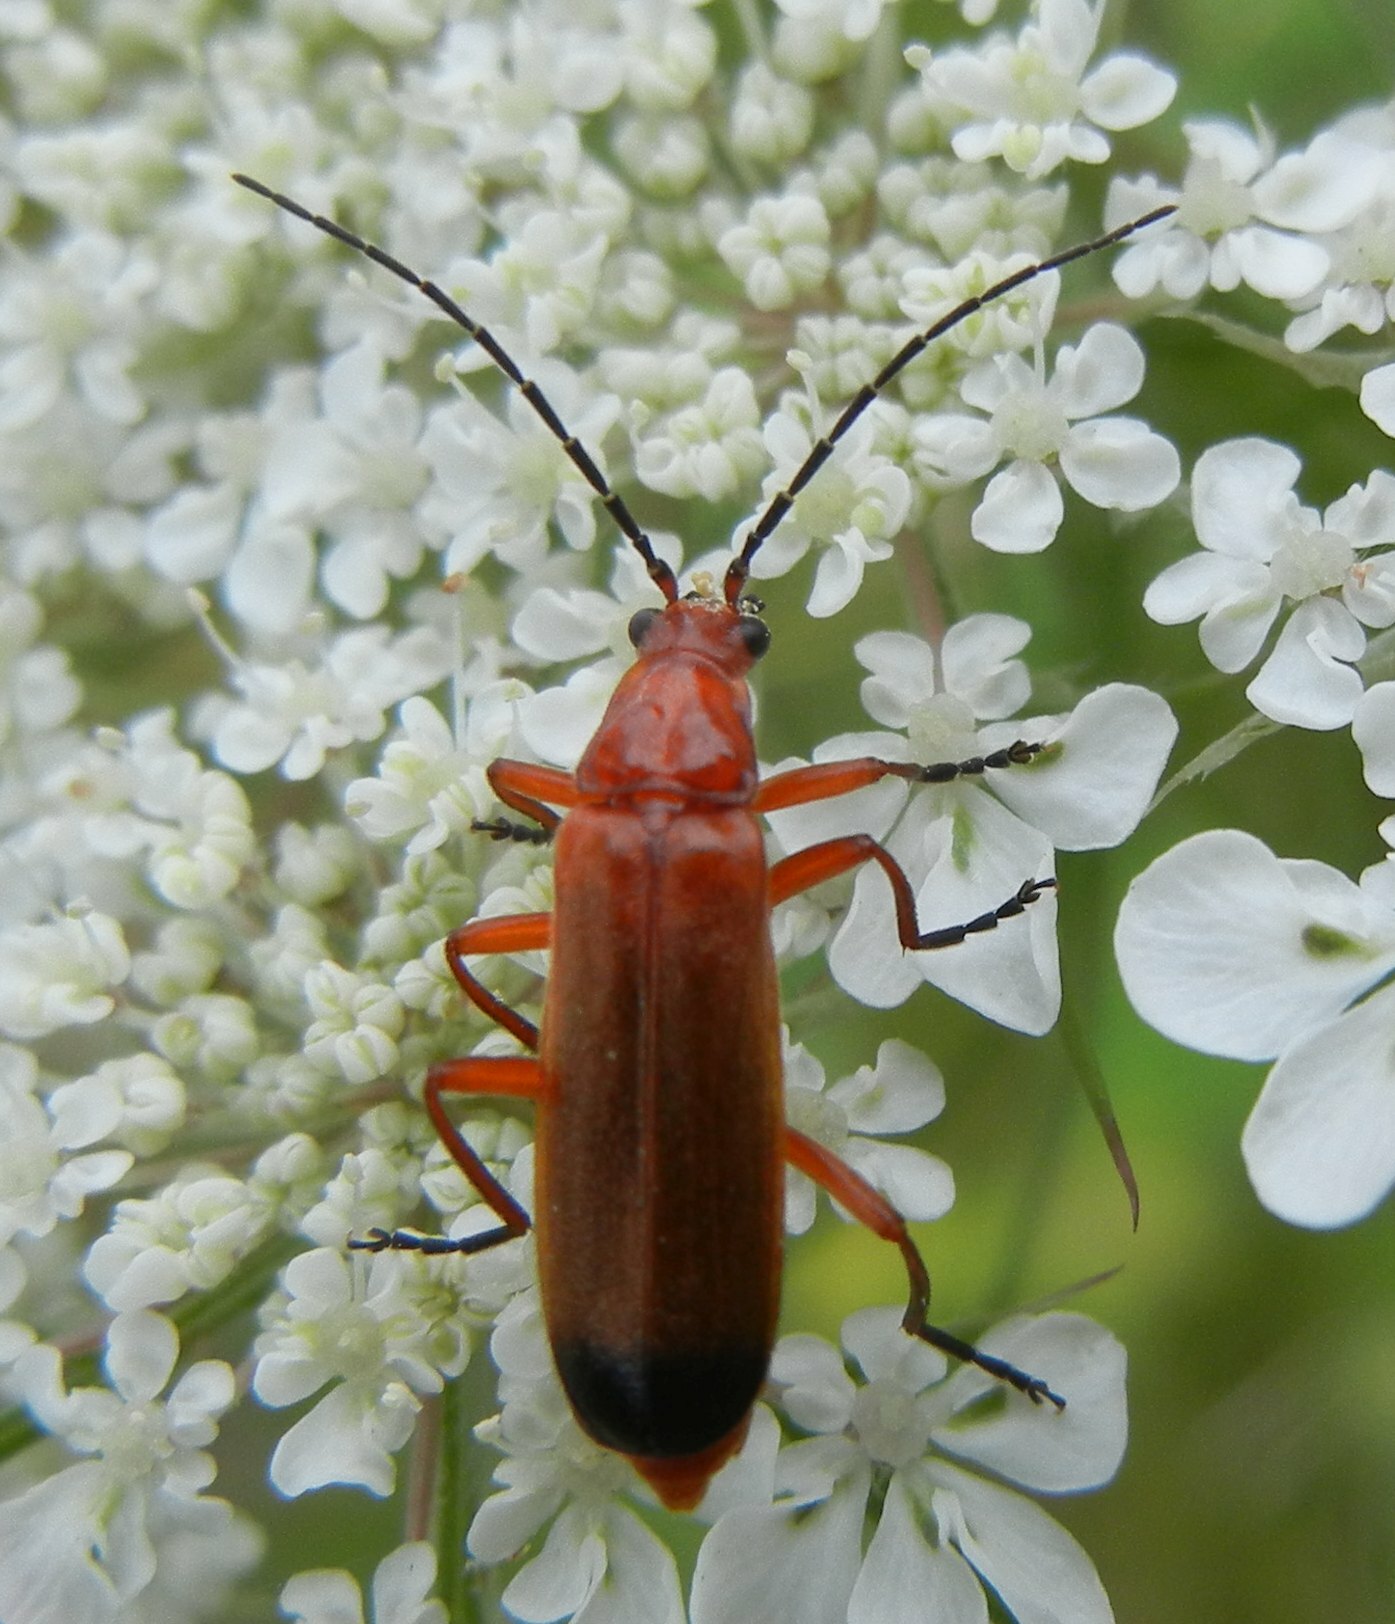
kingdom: Animalia
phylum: Arthropoda
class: Insecta
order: Coleoptera
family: Cantharidae
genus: Rhagonycha
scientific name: Rhagonycha fulva
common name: Common red soldier beetle
